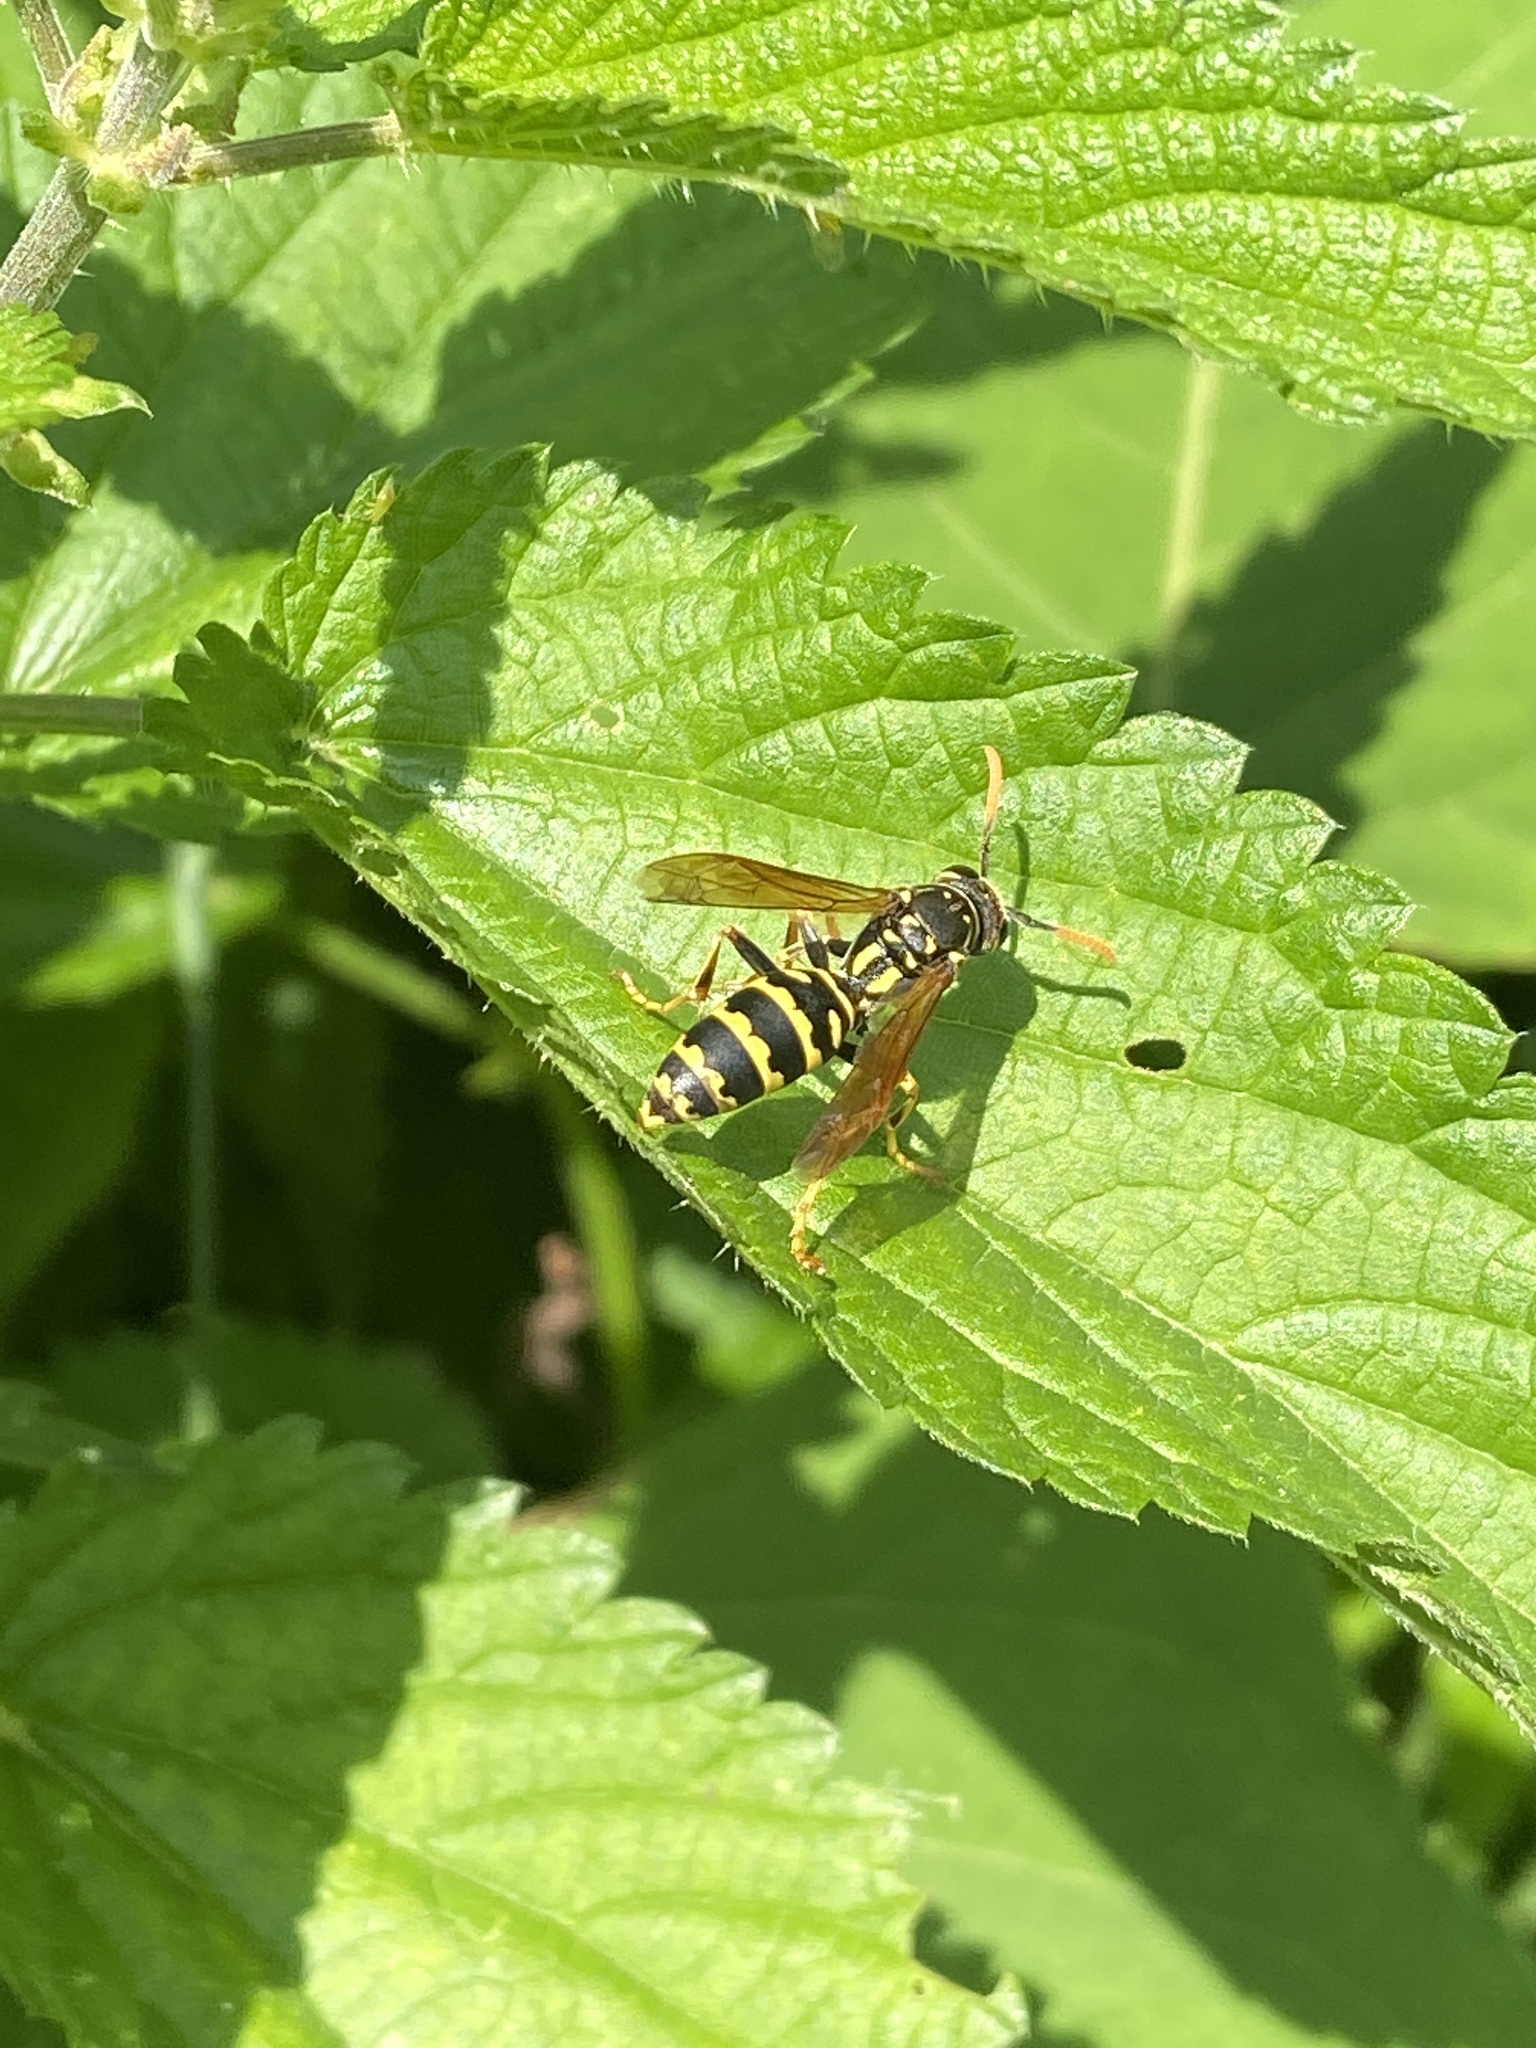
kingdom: Animalia
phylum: Arthropoda
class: Insecta
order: Hymenoptera
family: Eumenidae
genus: Polistes
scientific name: Polistes dominula
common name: Paper wasp
